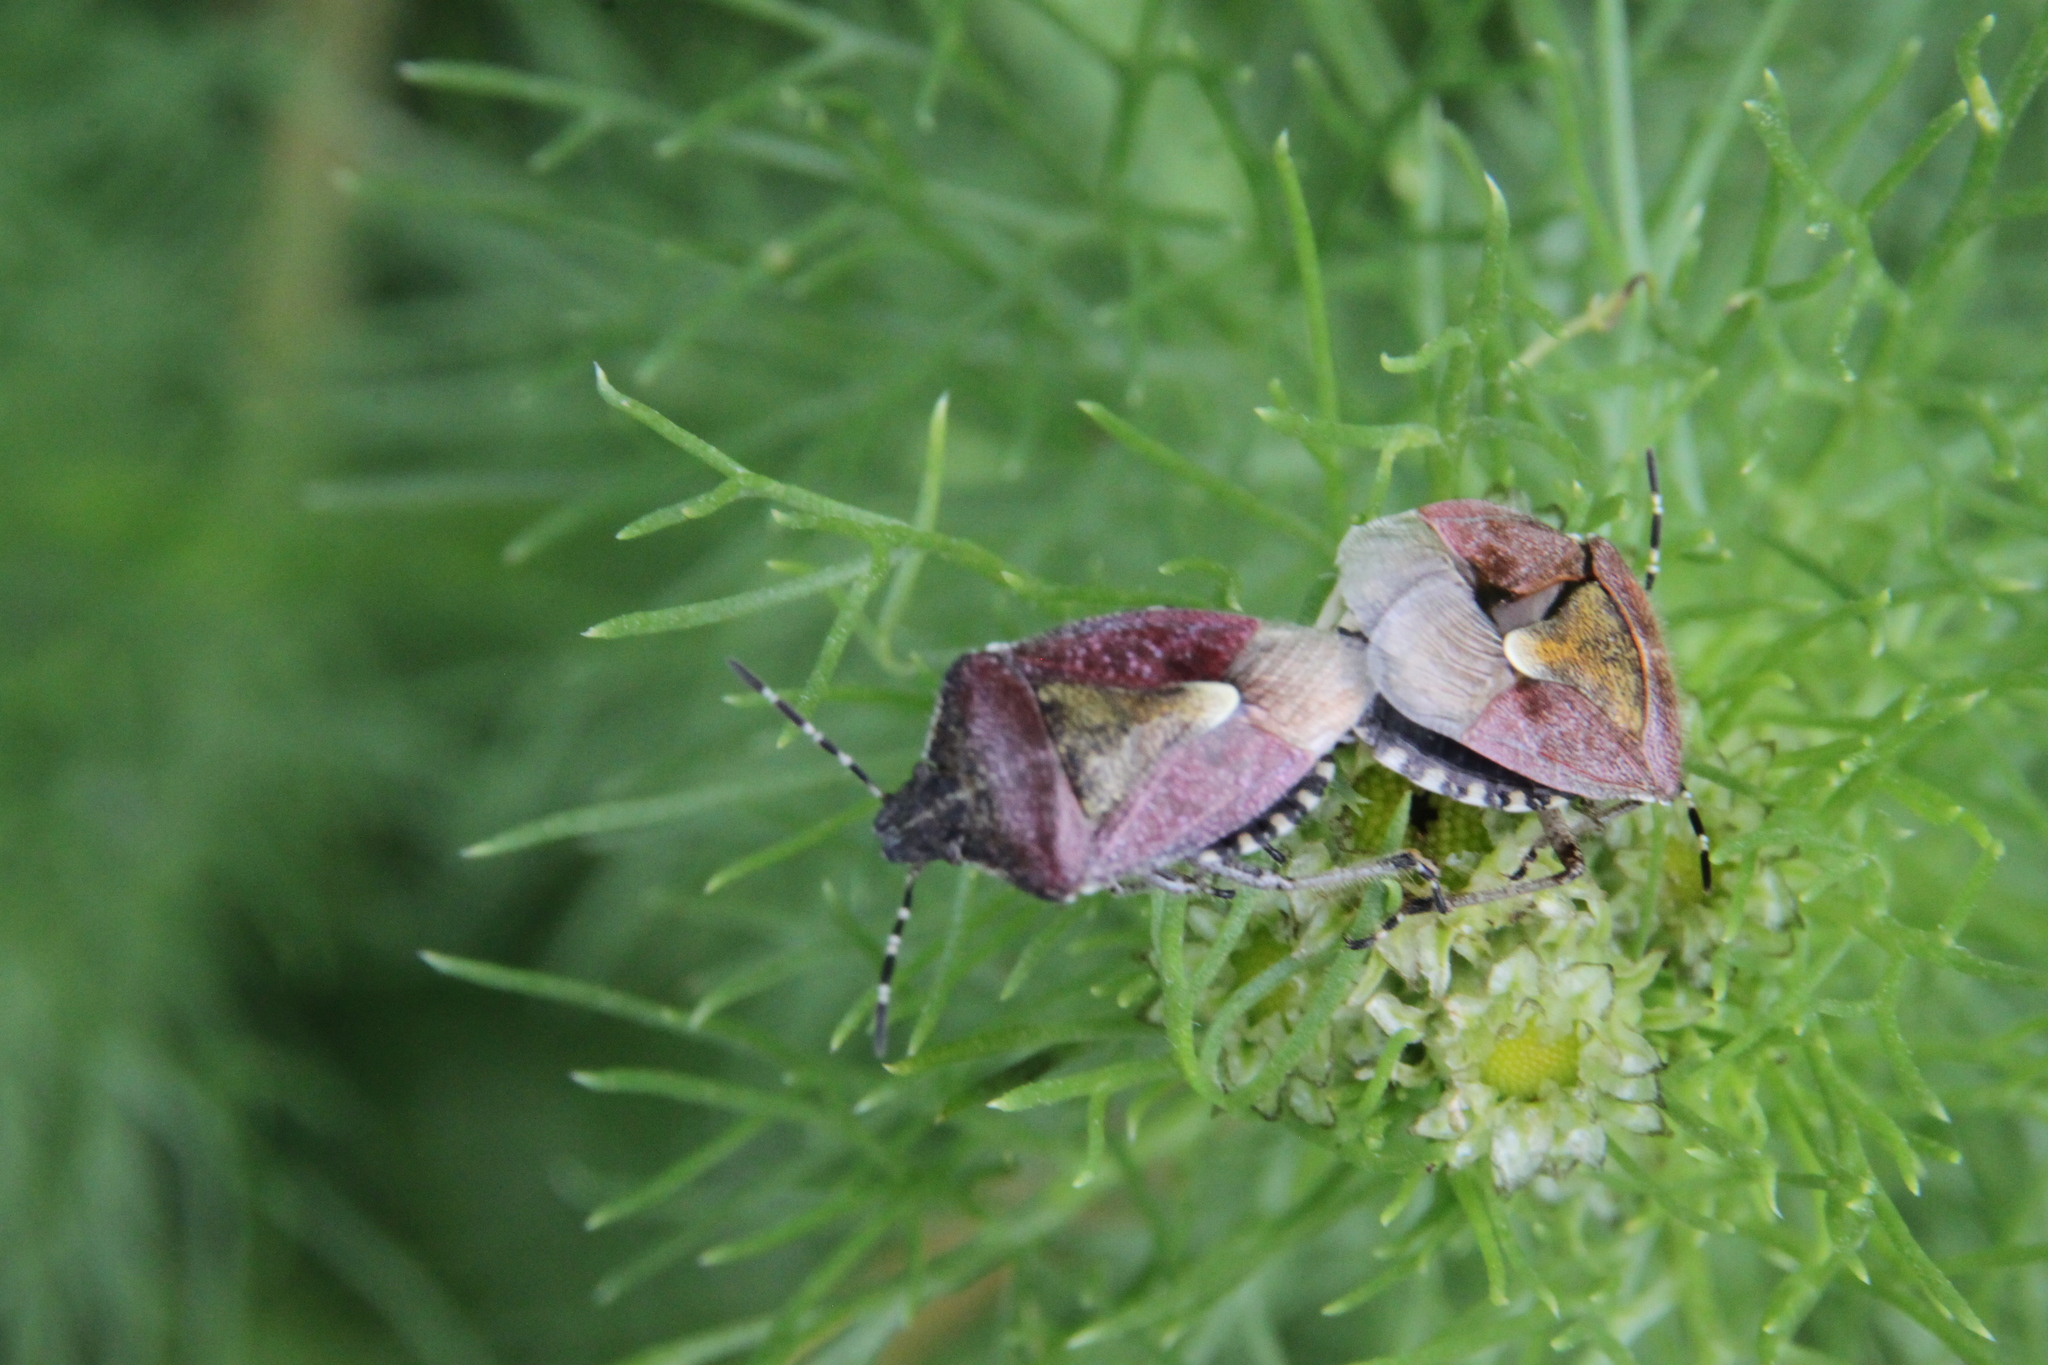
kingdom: Animalia
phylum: Arthropoda
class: Insecta
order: Hemiptera
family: Pentatomidae
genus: Dolycoris
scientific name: Dolycoris baccarum
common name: Sloe bug
